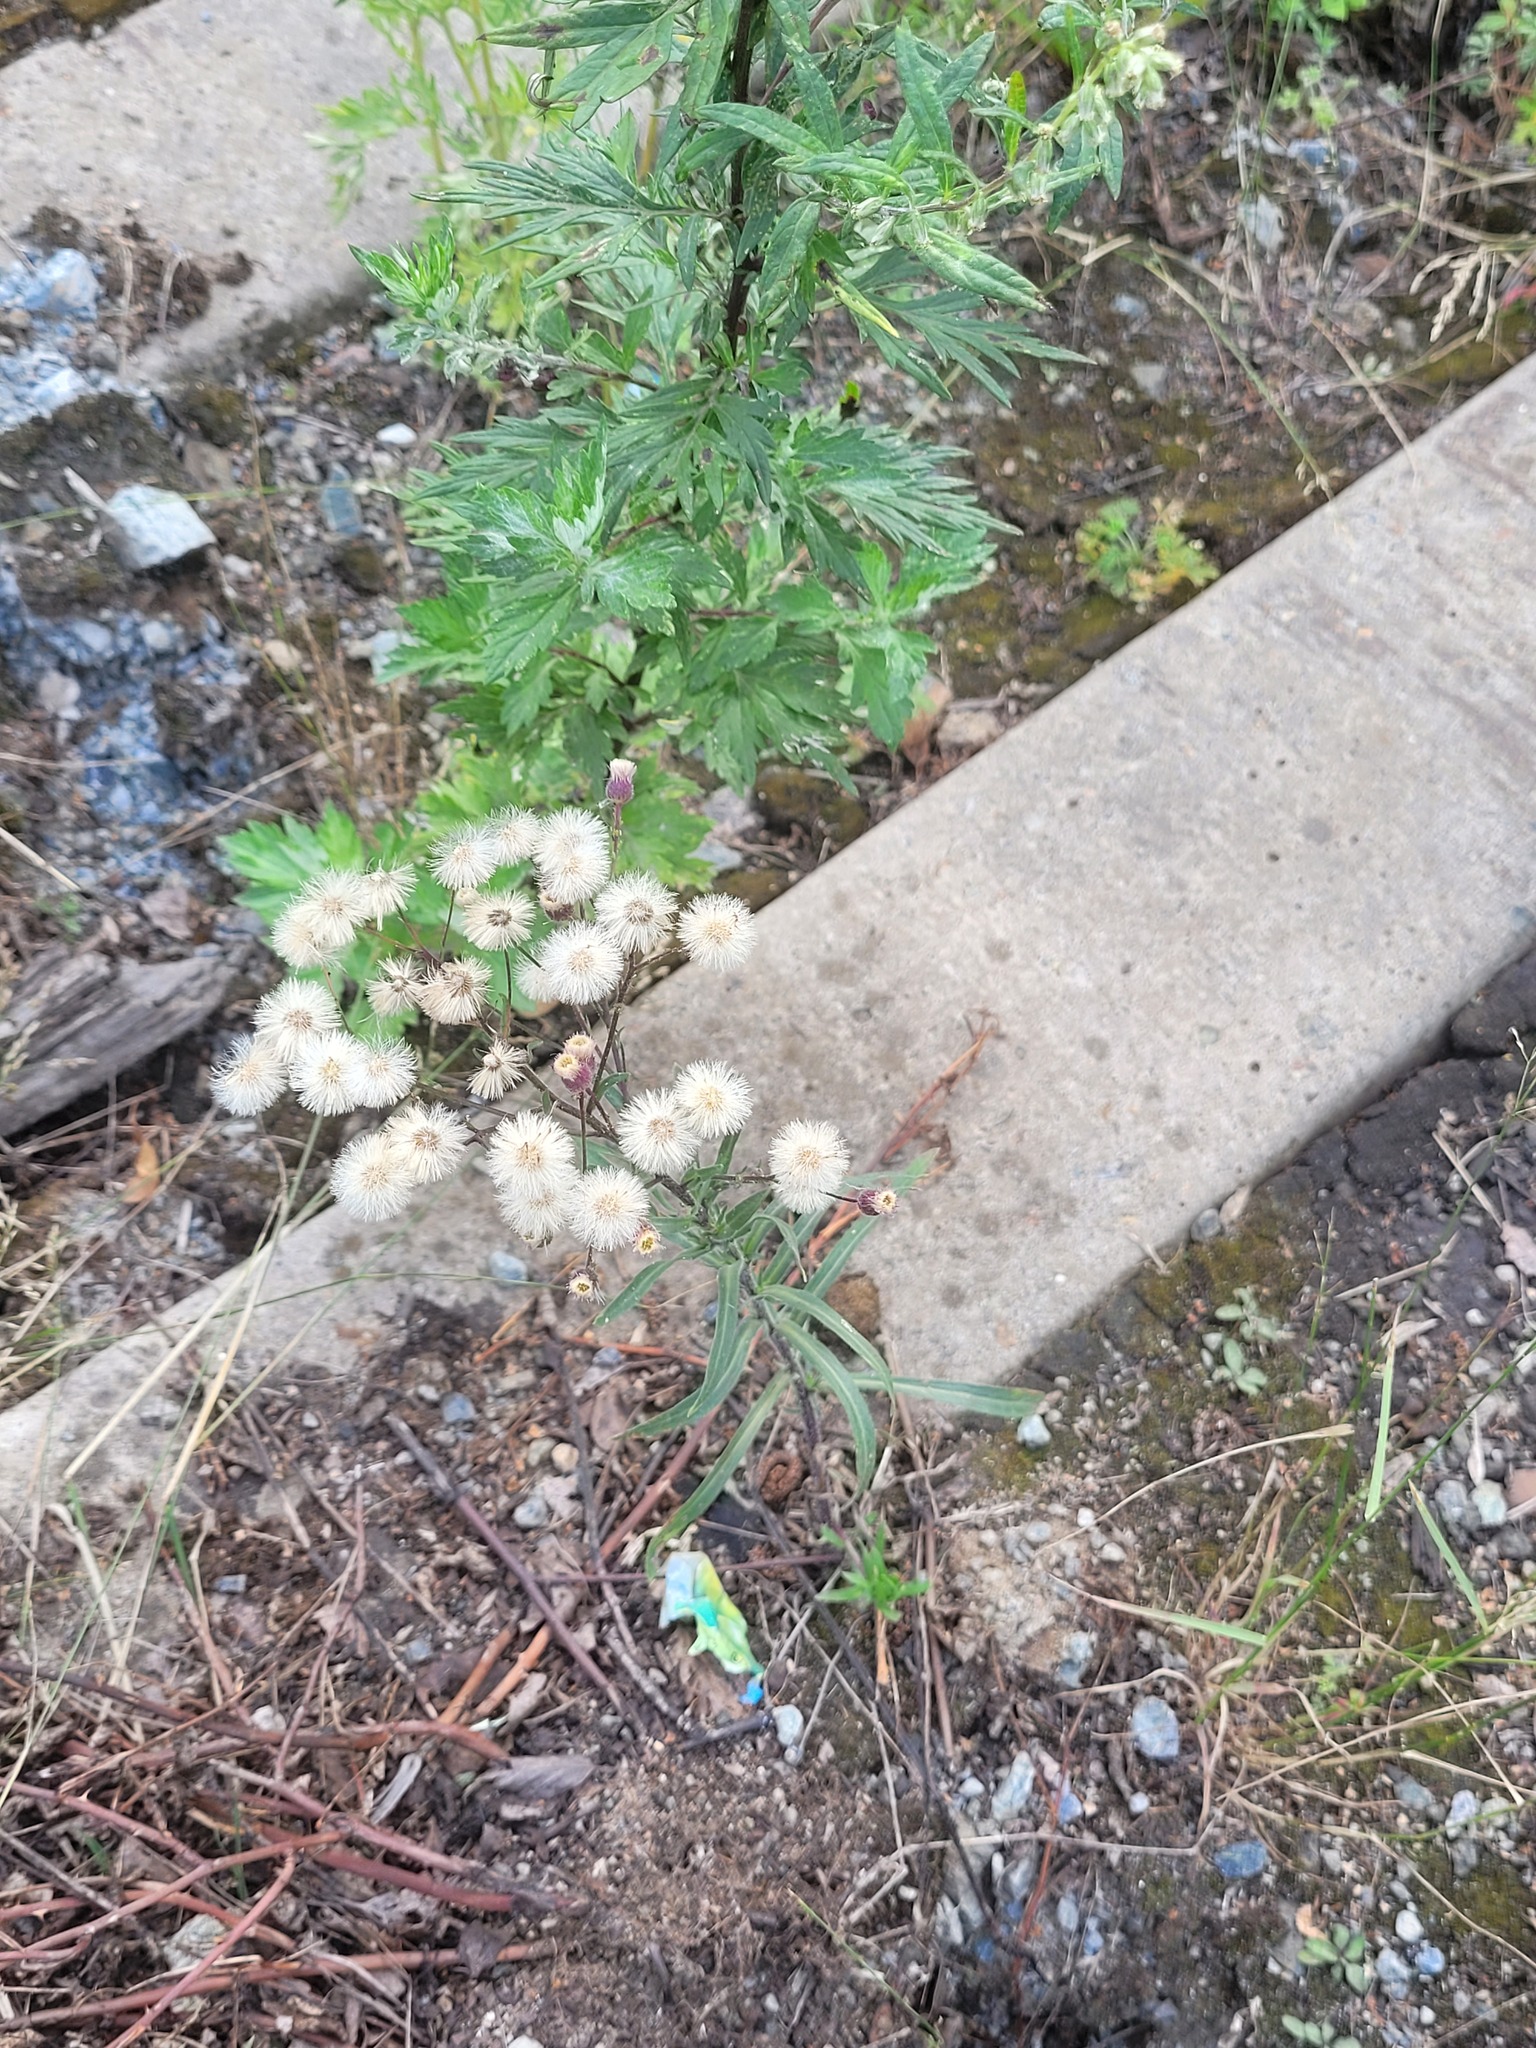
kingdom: Plantae
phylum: Tracheophyta
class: Magnoliopsida
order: Asterales
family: Asteraceae
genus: Erigeron
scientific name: Erigeron acris
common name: Blue fleabane
